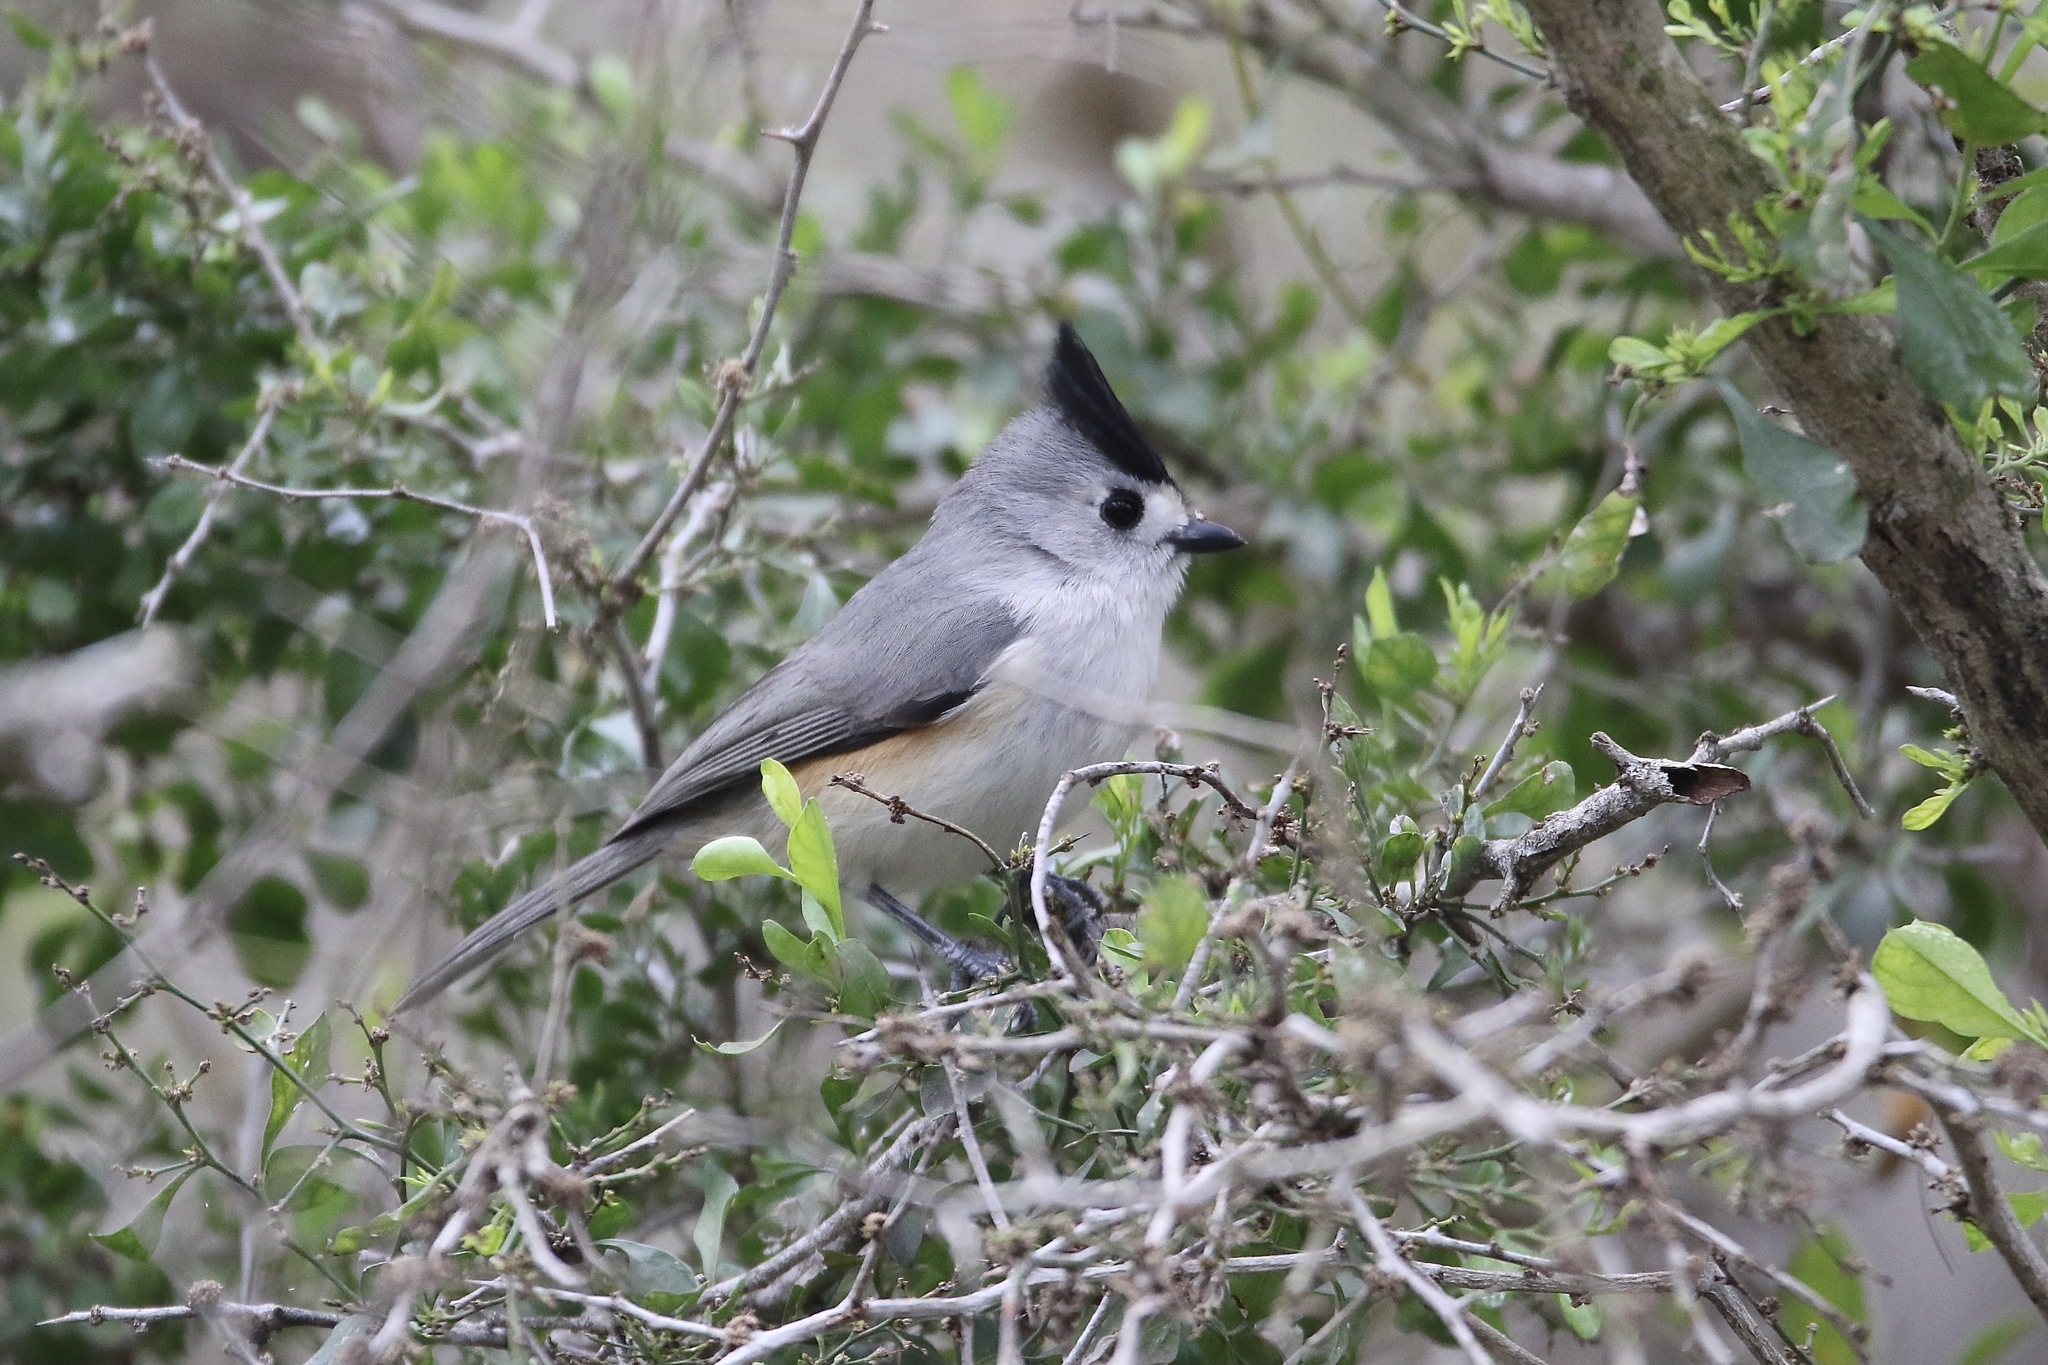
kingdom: Animalia
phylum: Chordata
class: Aves
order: Passeriformes
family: Paridae
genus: Baeolophus
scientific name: Baeolophus atricristatus
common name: Black-crested titmouse
